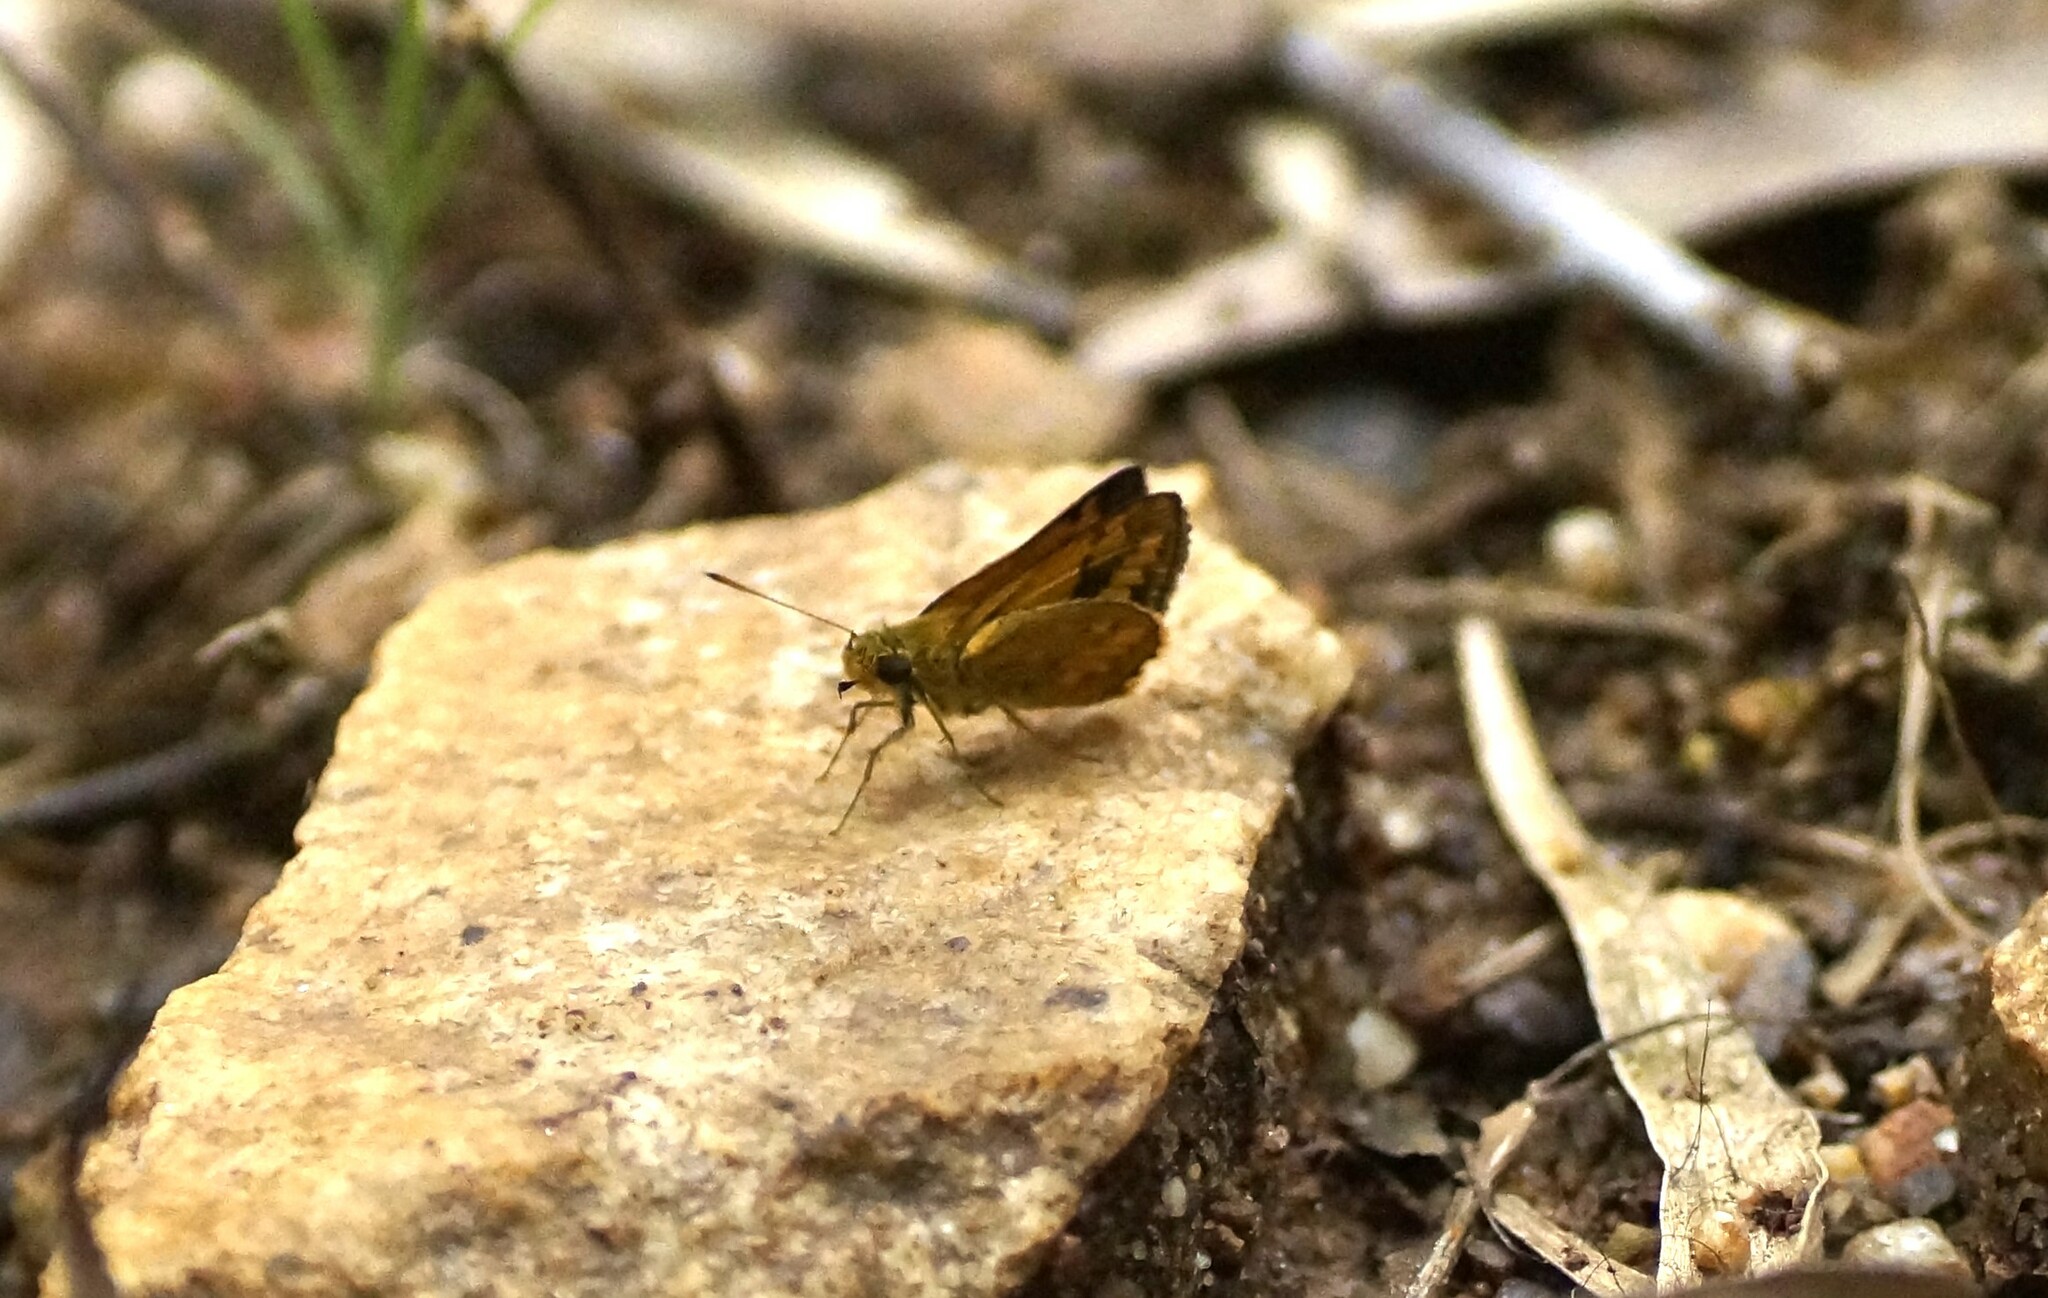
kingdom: Animalia
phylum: Arthropoda
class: Insecta
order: Lepidoptera
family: Hesperiidae
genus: Suniana
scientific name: Suniana sunias
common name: Wide-brand grass-dart
